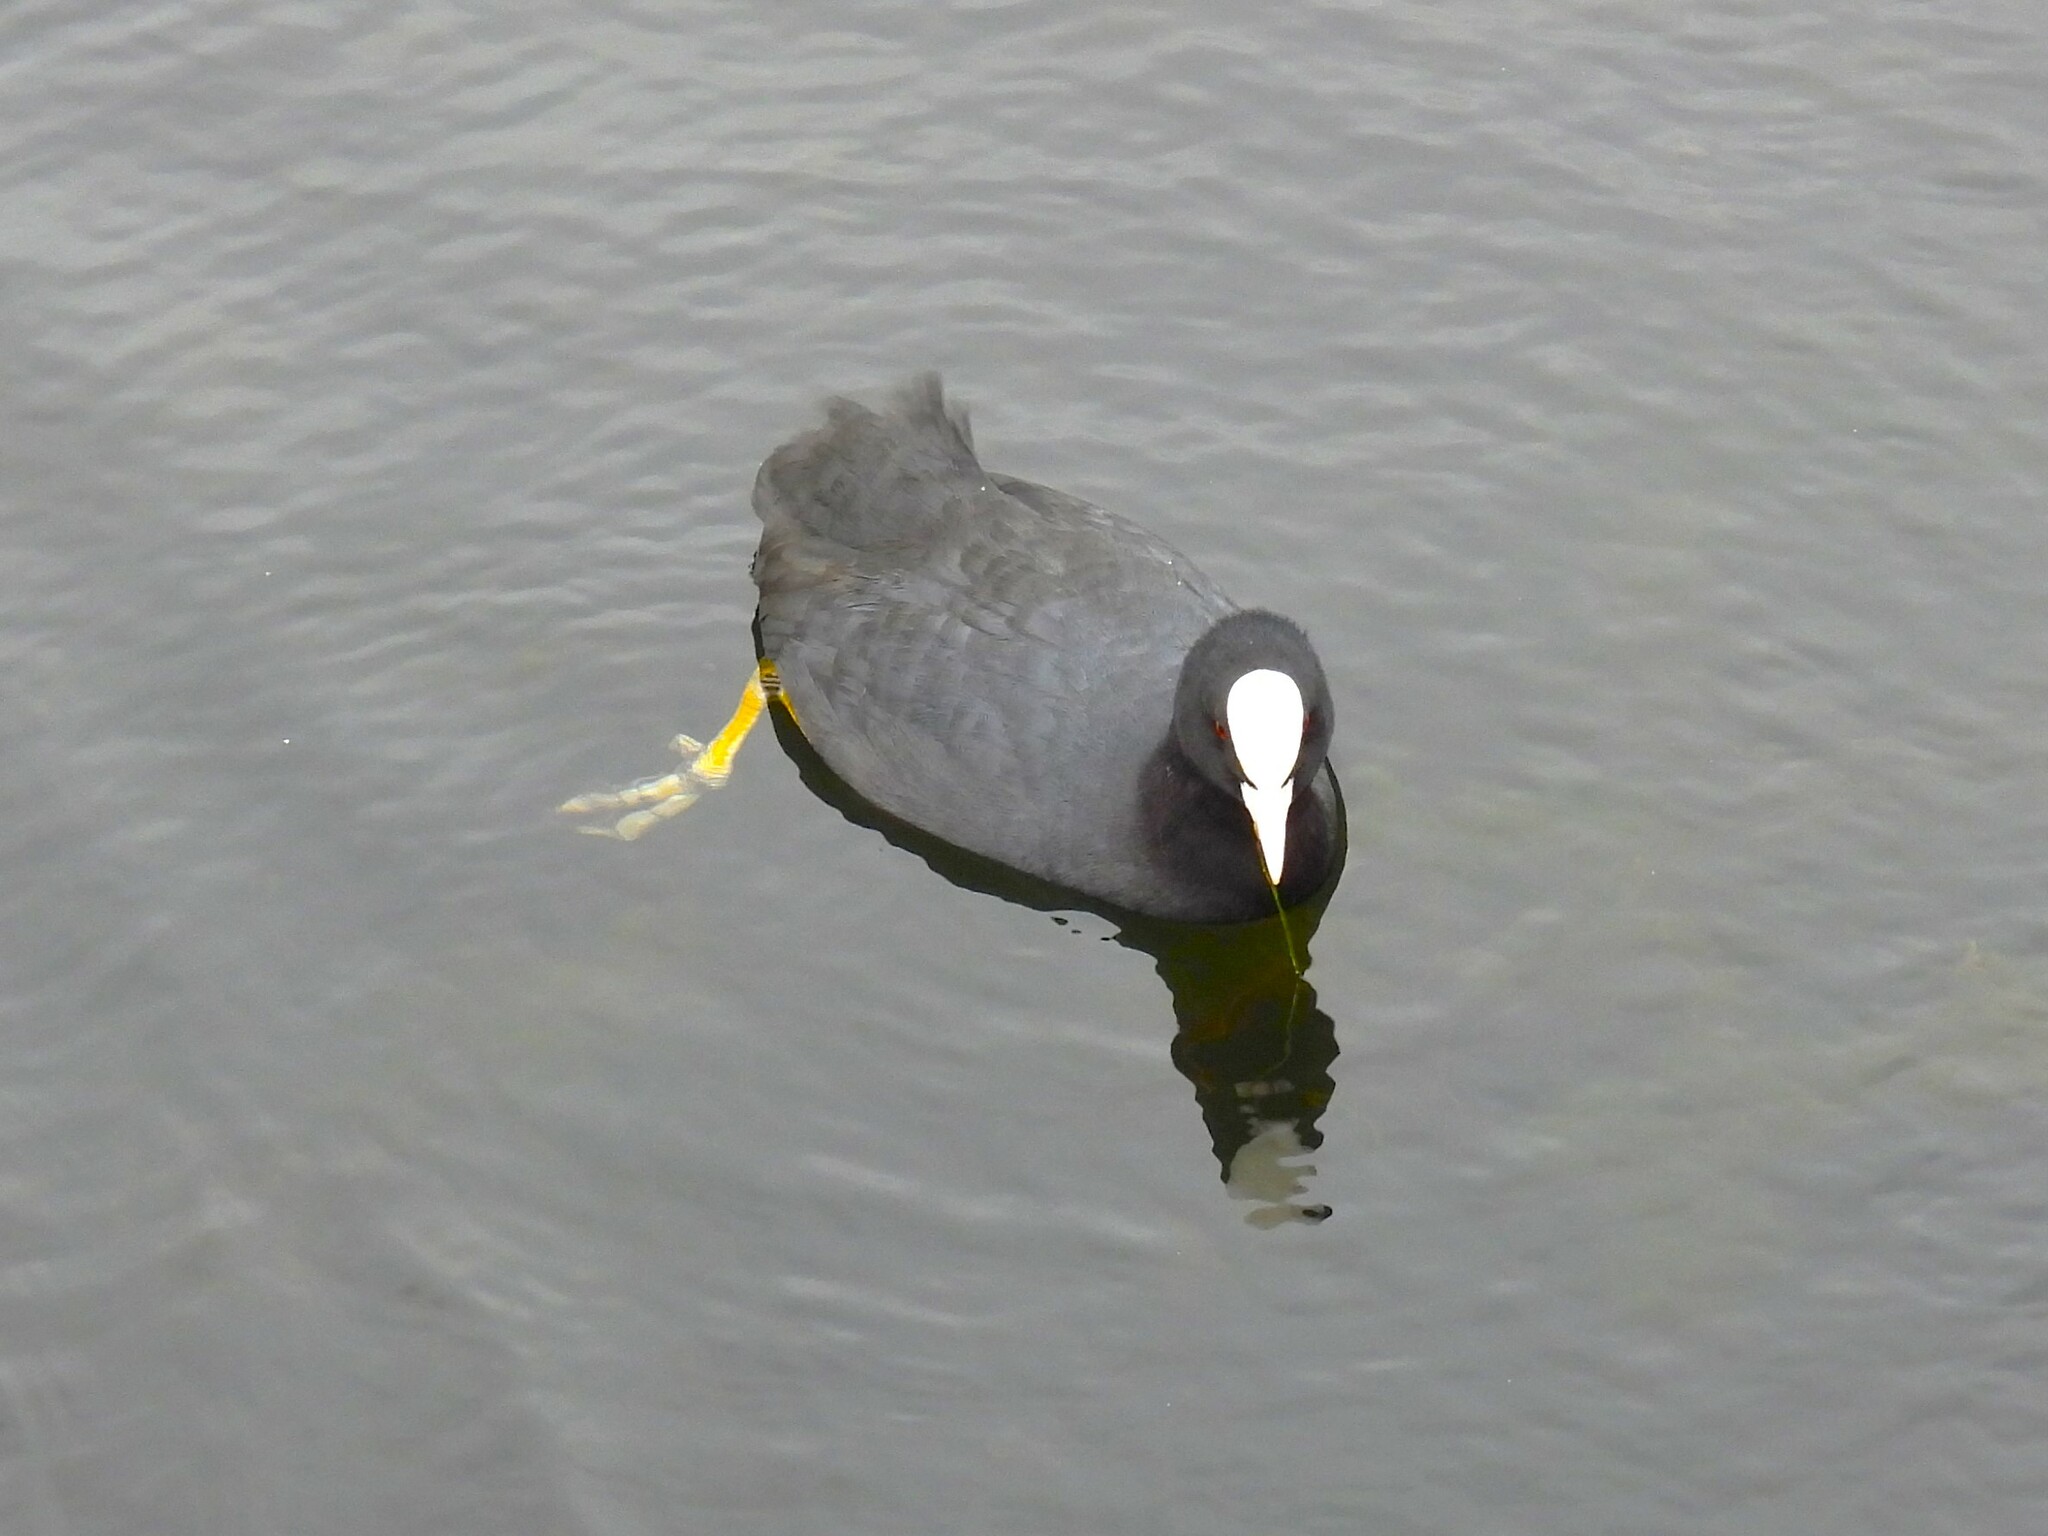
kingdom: Animalia
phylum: Chordata
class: Aves
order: Gruiformes
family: Rallidae
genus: Fulica
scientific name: Fulica atra
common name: Eurasian coot
